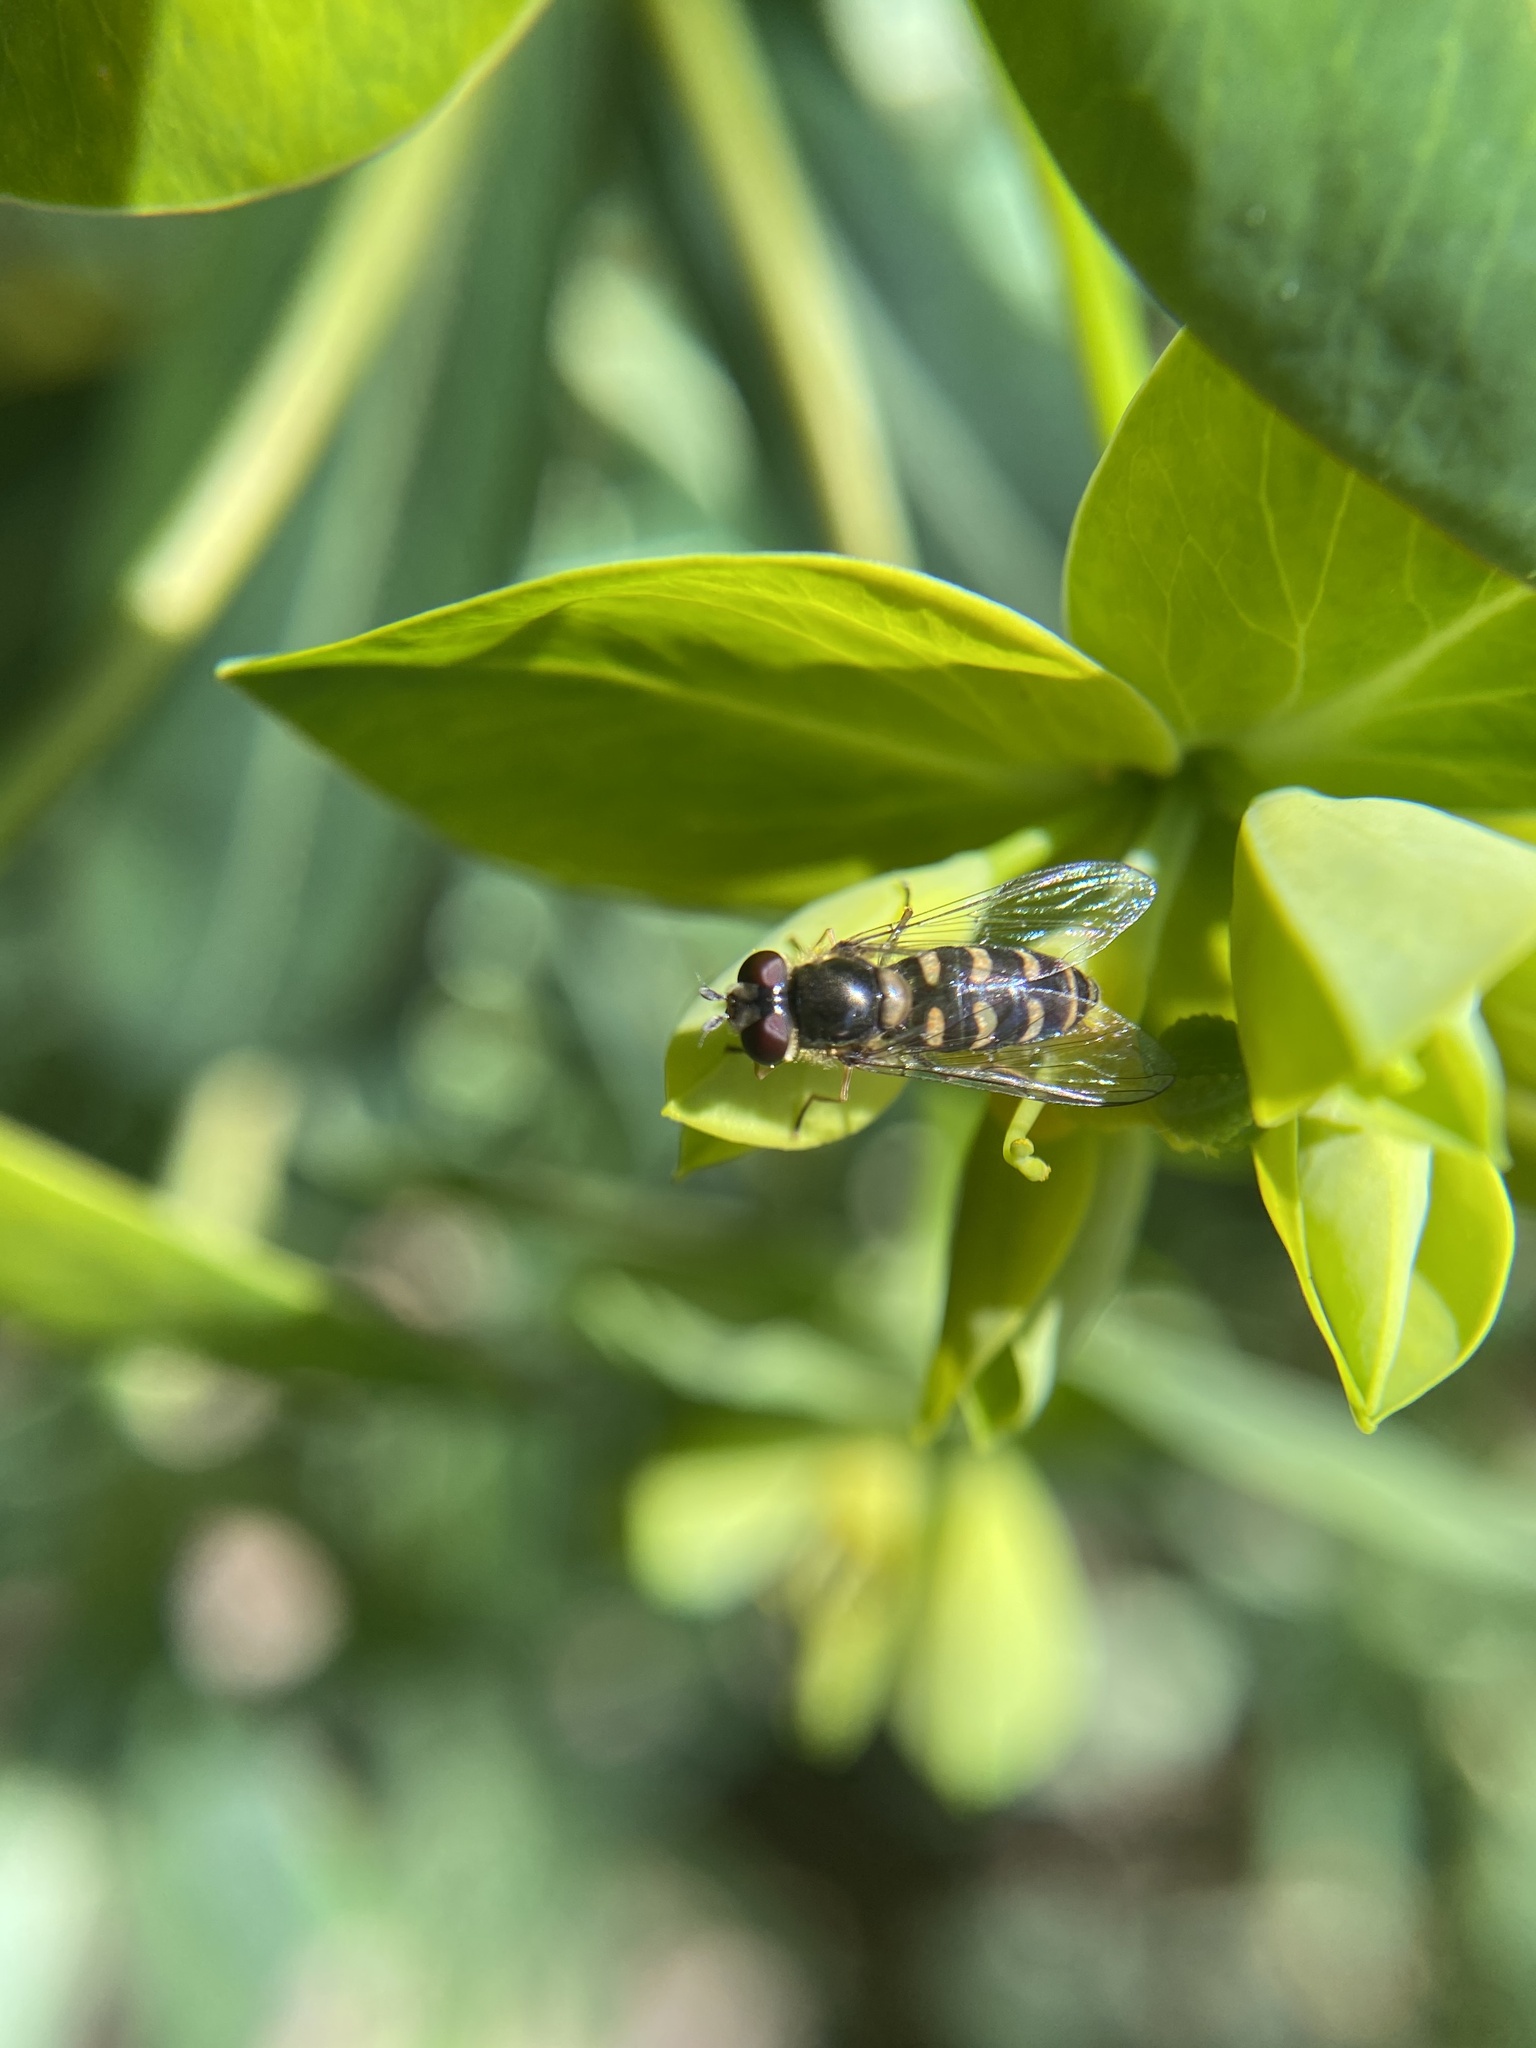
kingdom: Animalia
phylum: Arthropoda
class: Insecta
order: Diptera
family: Syrphidae
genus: Lapposyrphus
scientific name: Lapposyrphus lapponicus
